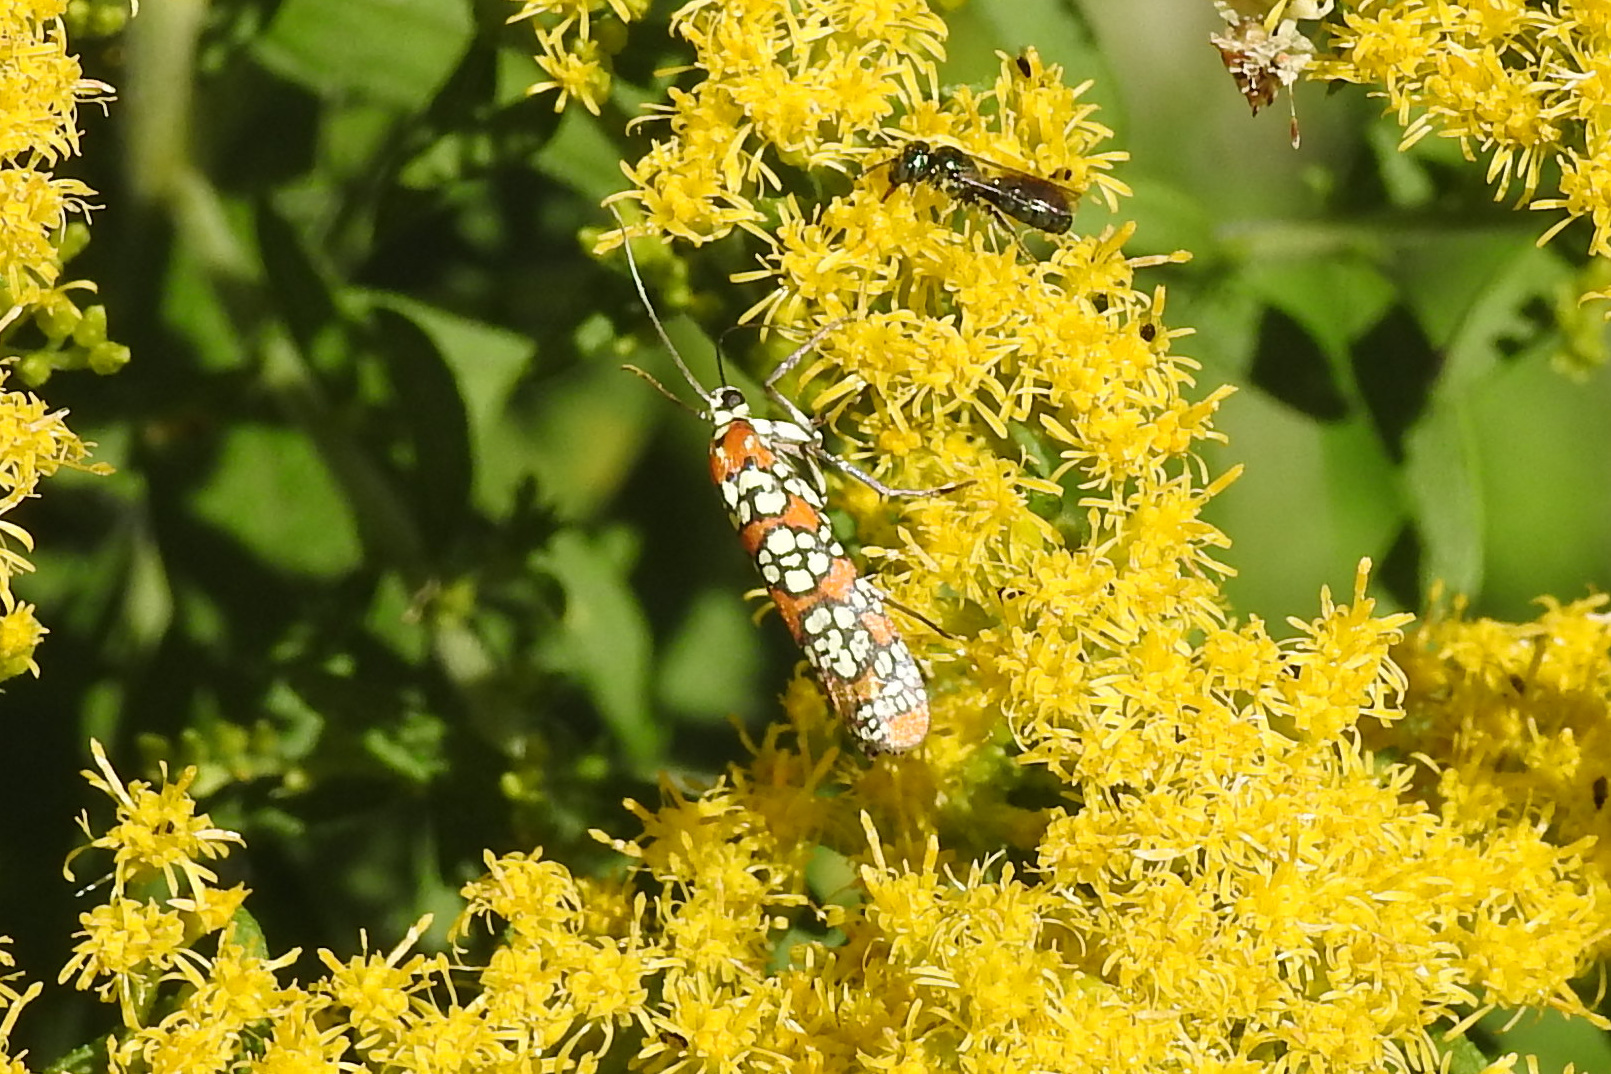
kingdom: Animalia
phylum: Arthropoda
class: Insecta
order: Lepidoptera
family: Attevidae
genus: Atteva
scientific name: Atteva punctella
